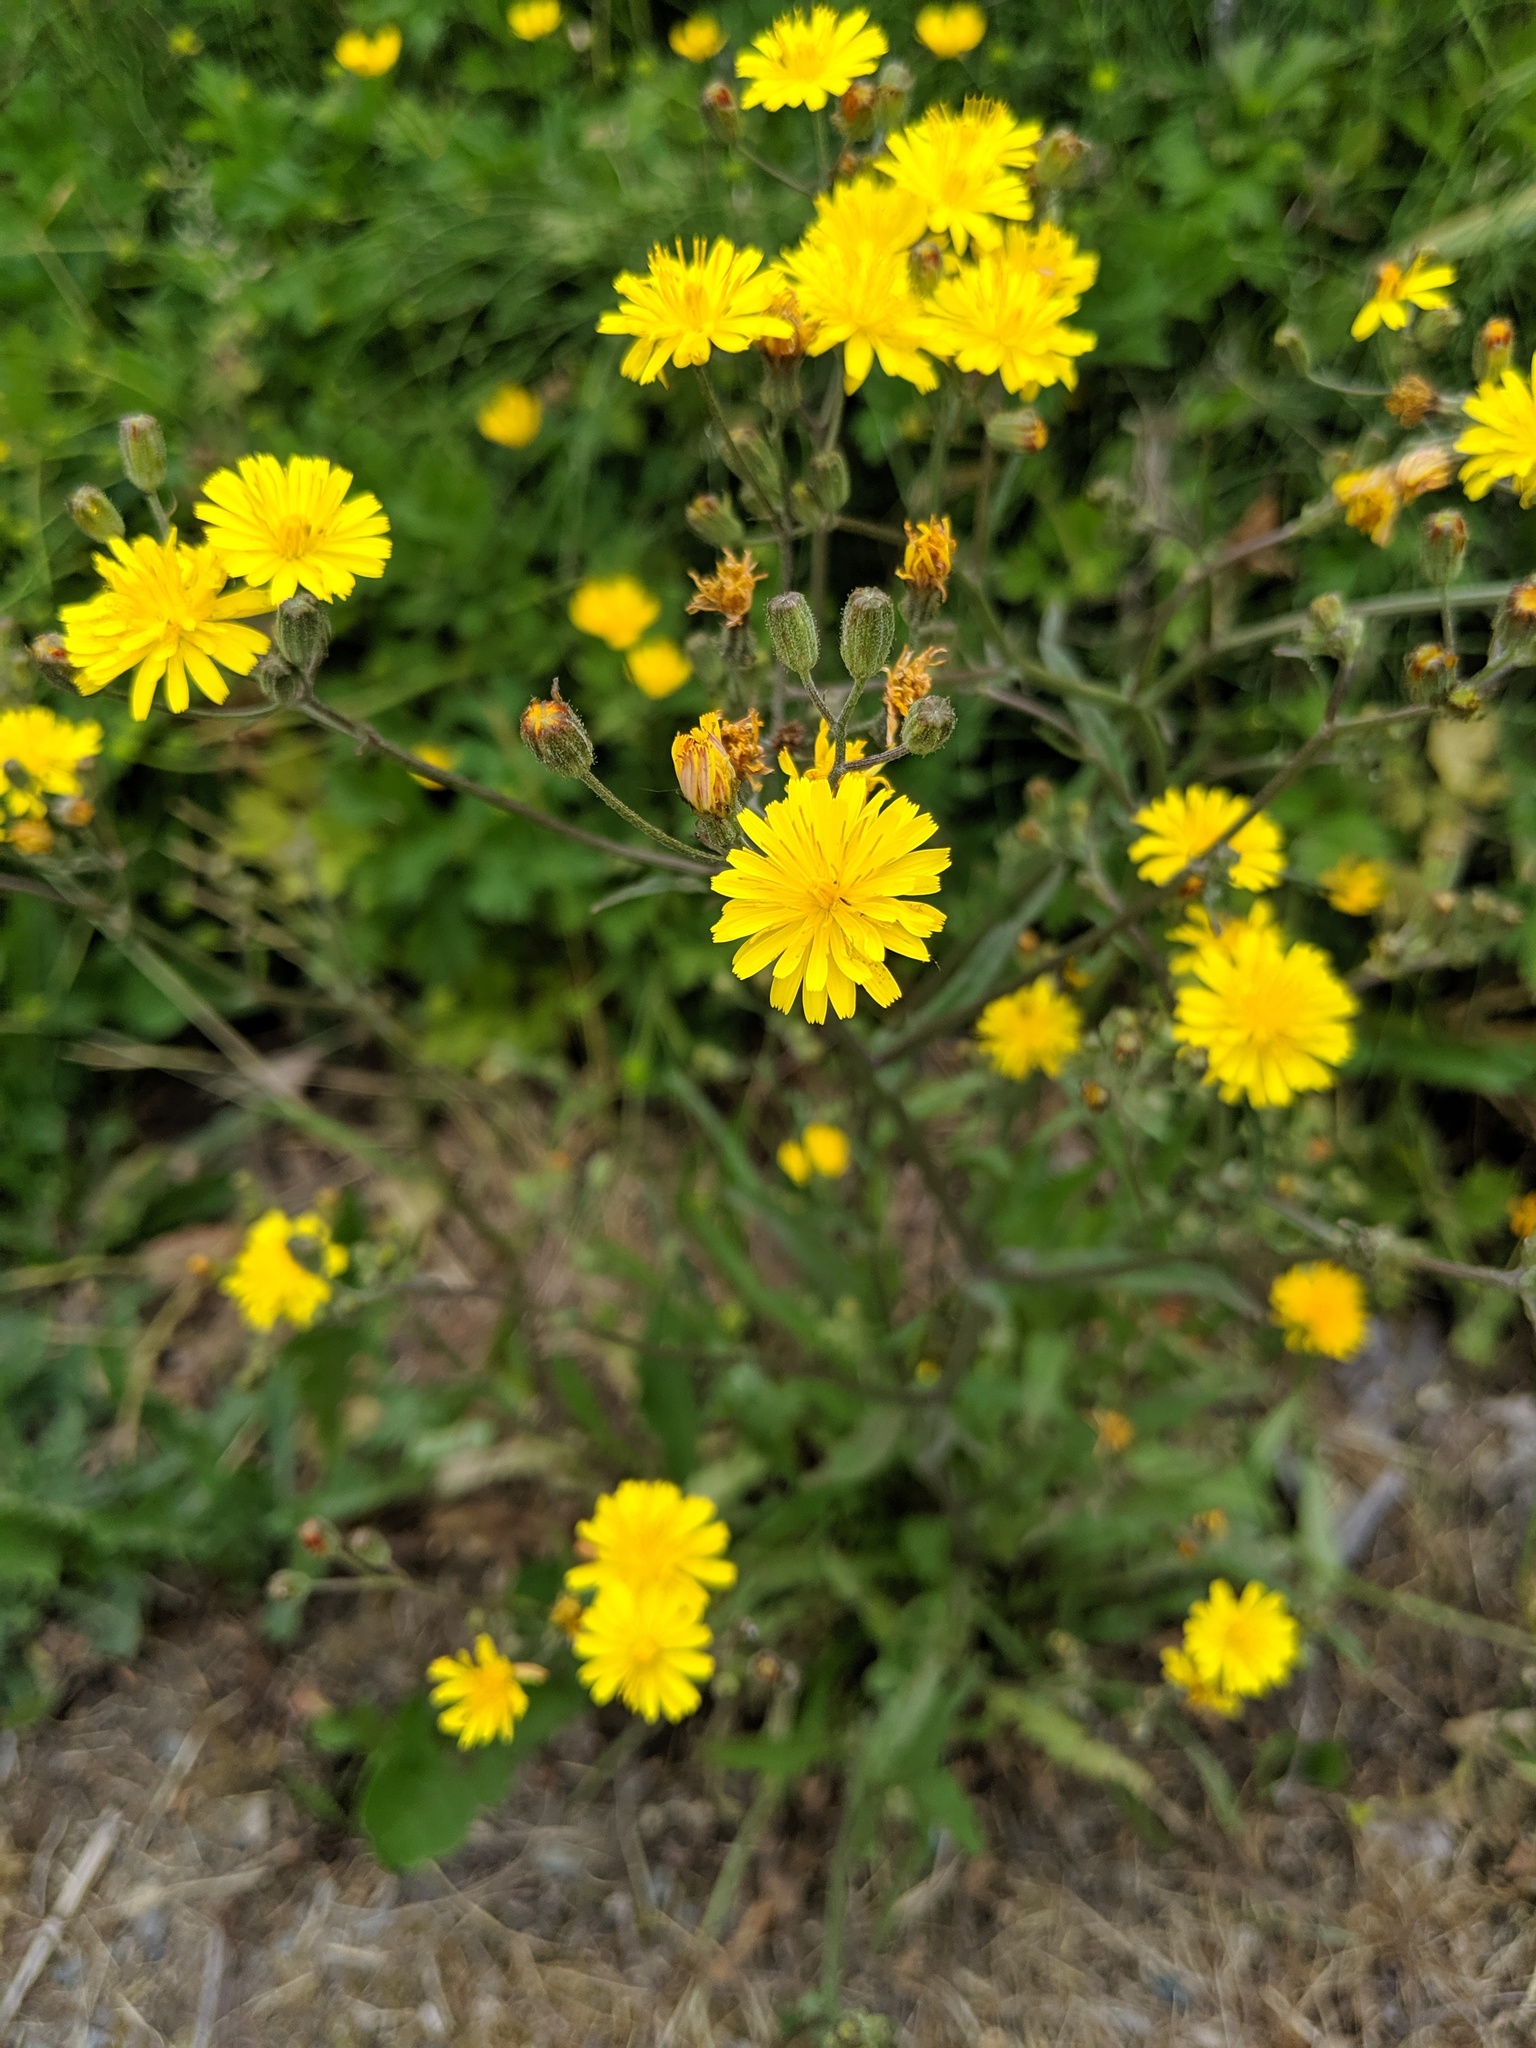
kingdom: Plantae
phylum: Tracheophyta
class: Magnoliopsida
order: Asterales
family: Asteraceae
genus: Crepis
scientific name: Crepis capillaris
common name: Smooth hawksbeard
